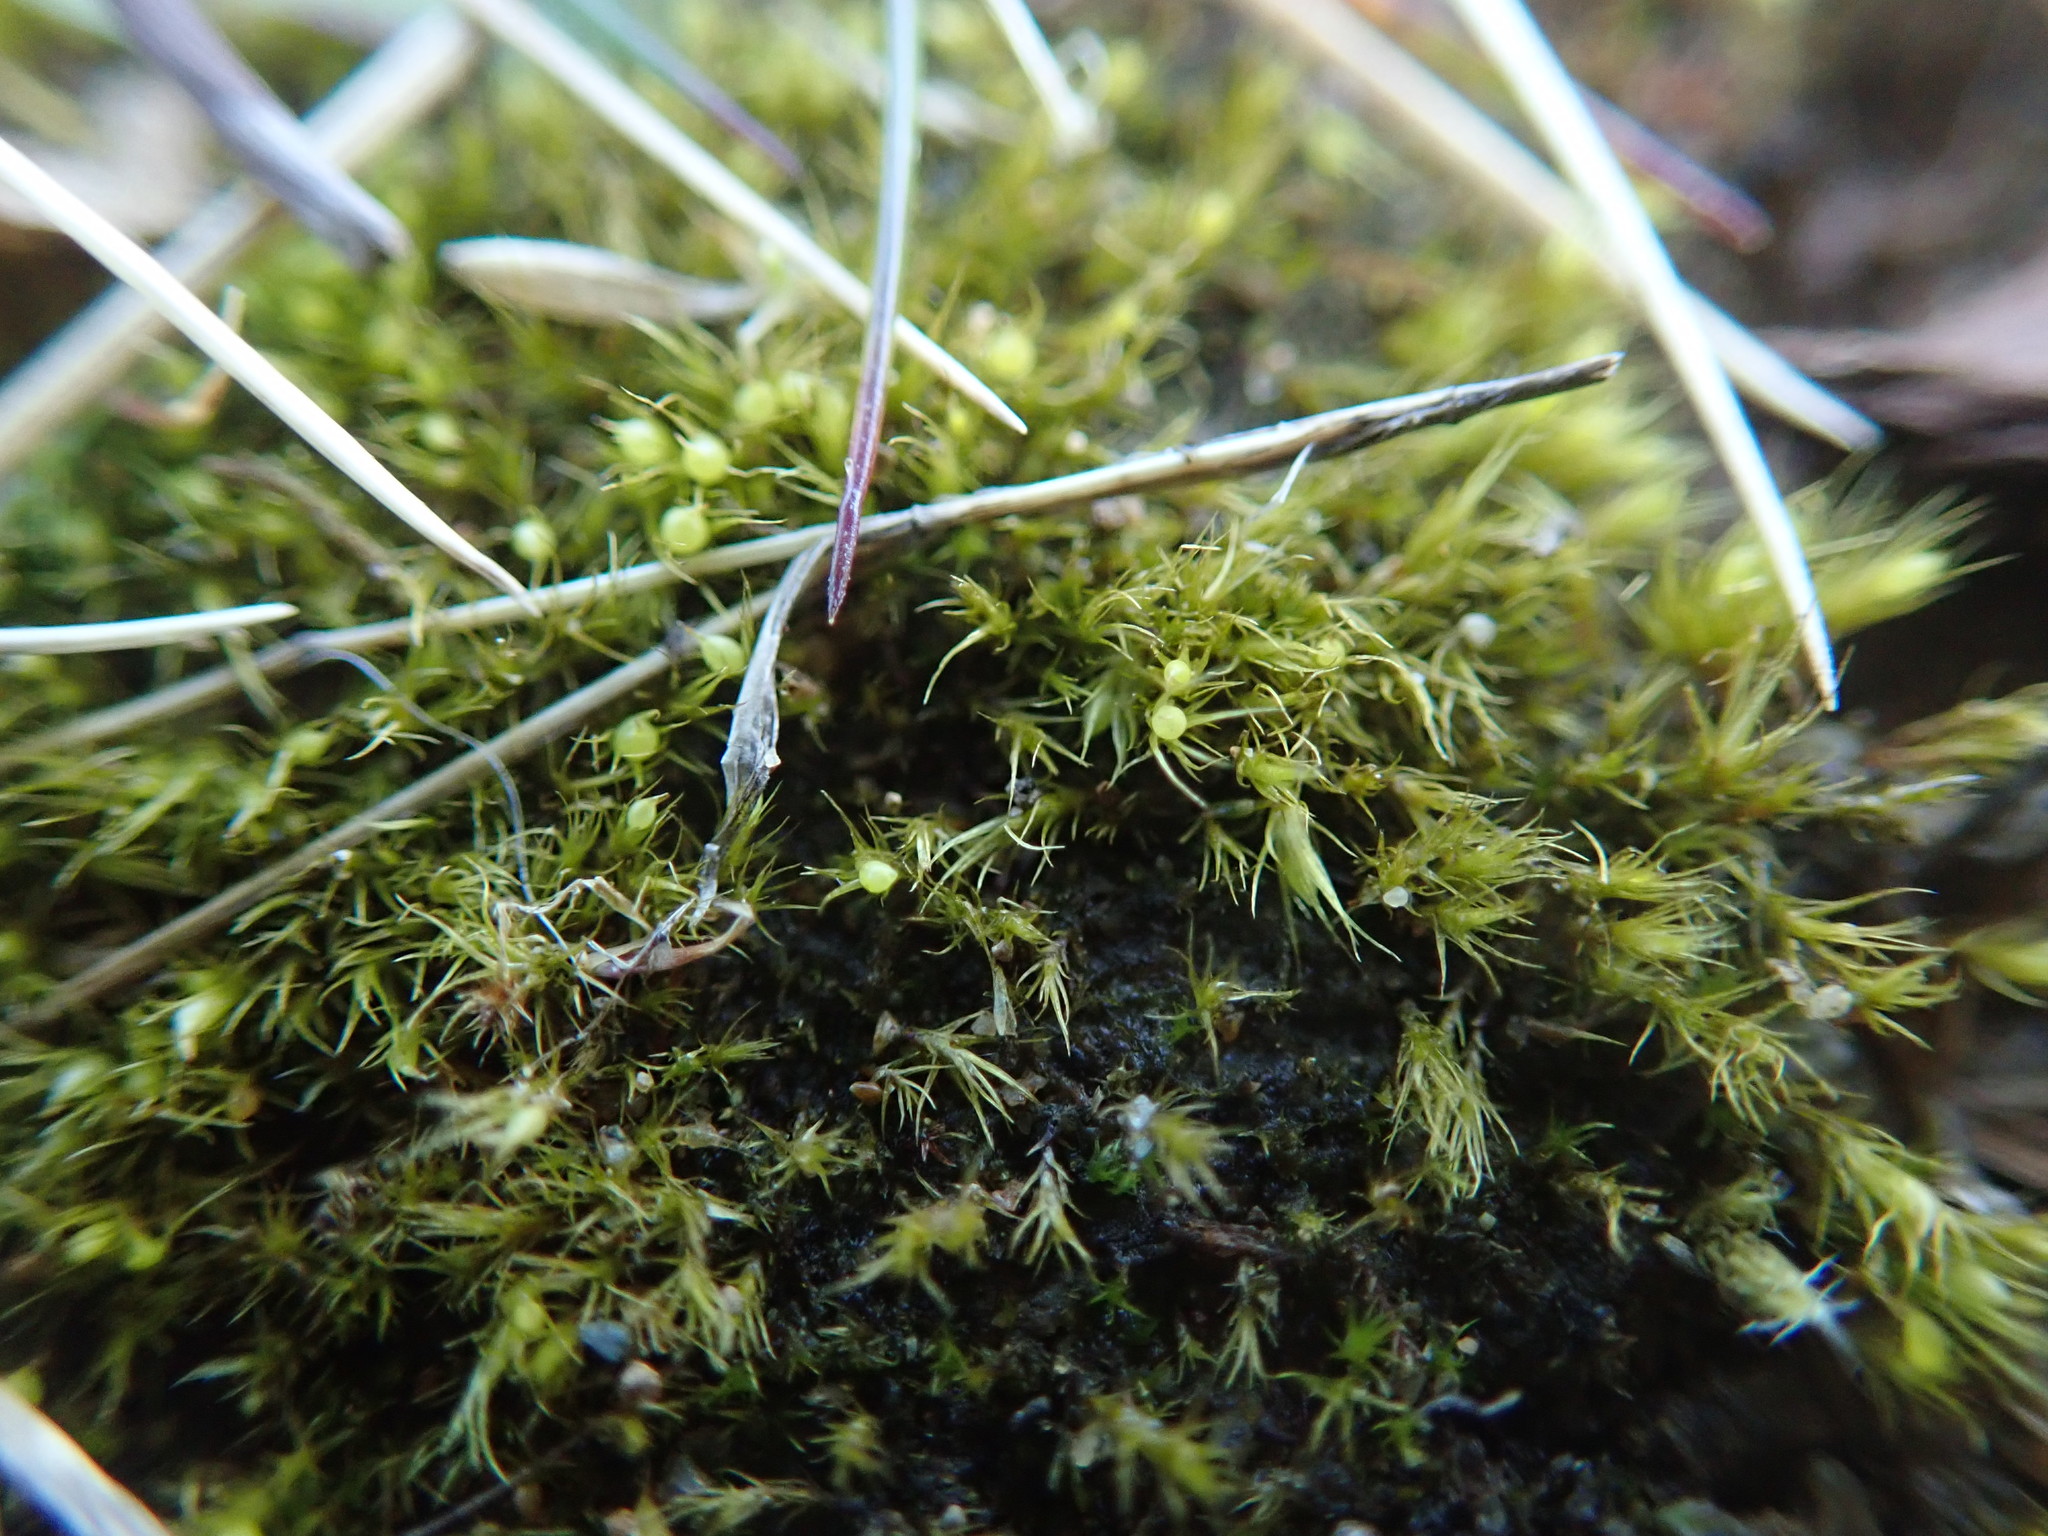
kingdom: Plantae
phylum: Bryophyta
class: Bryopsida
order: Dicranales
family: Ditrichaceae
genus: Pleuridium
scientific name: Pleuridium acuminatum
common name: Taper-leaved earth-moss
